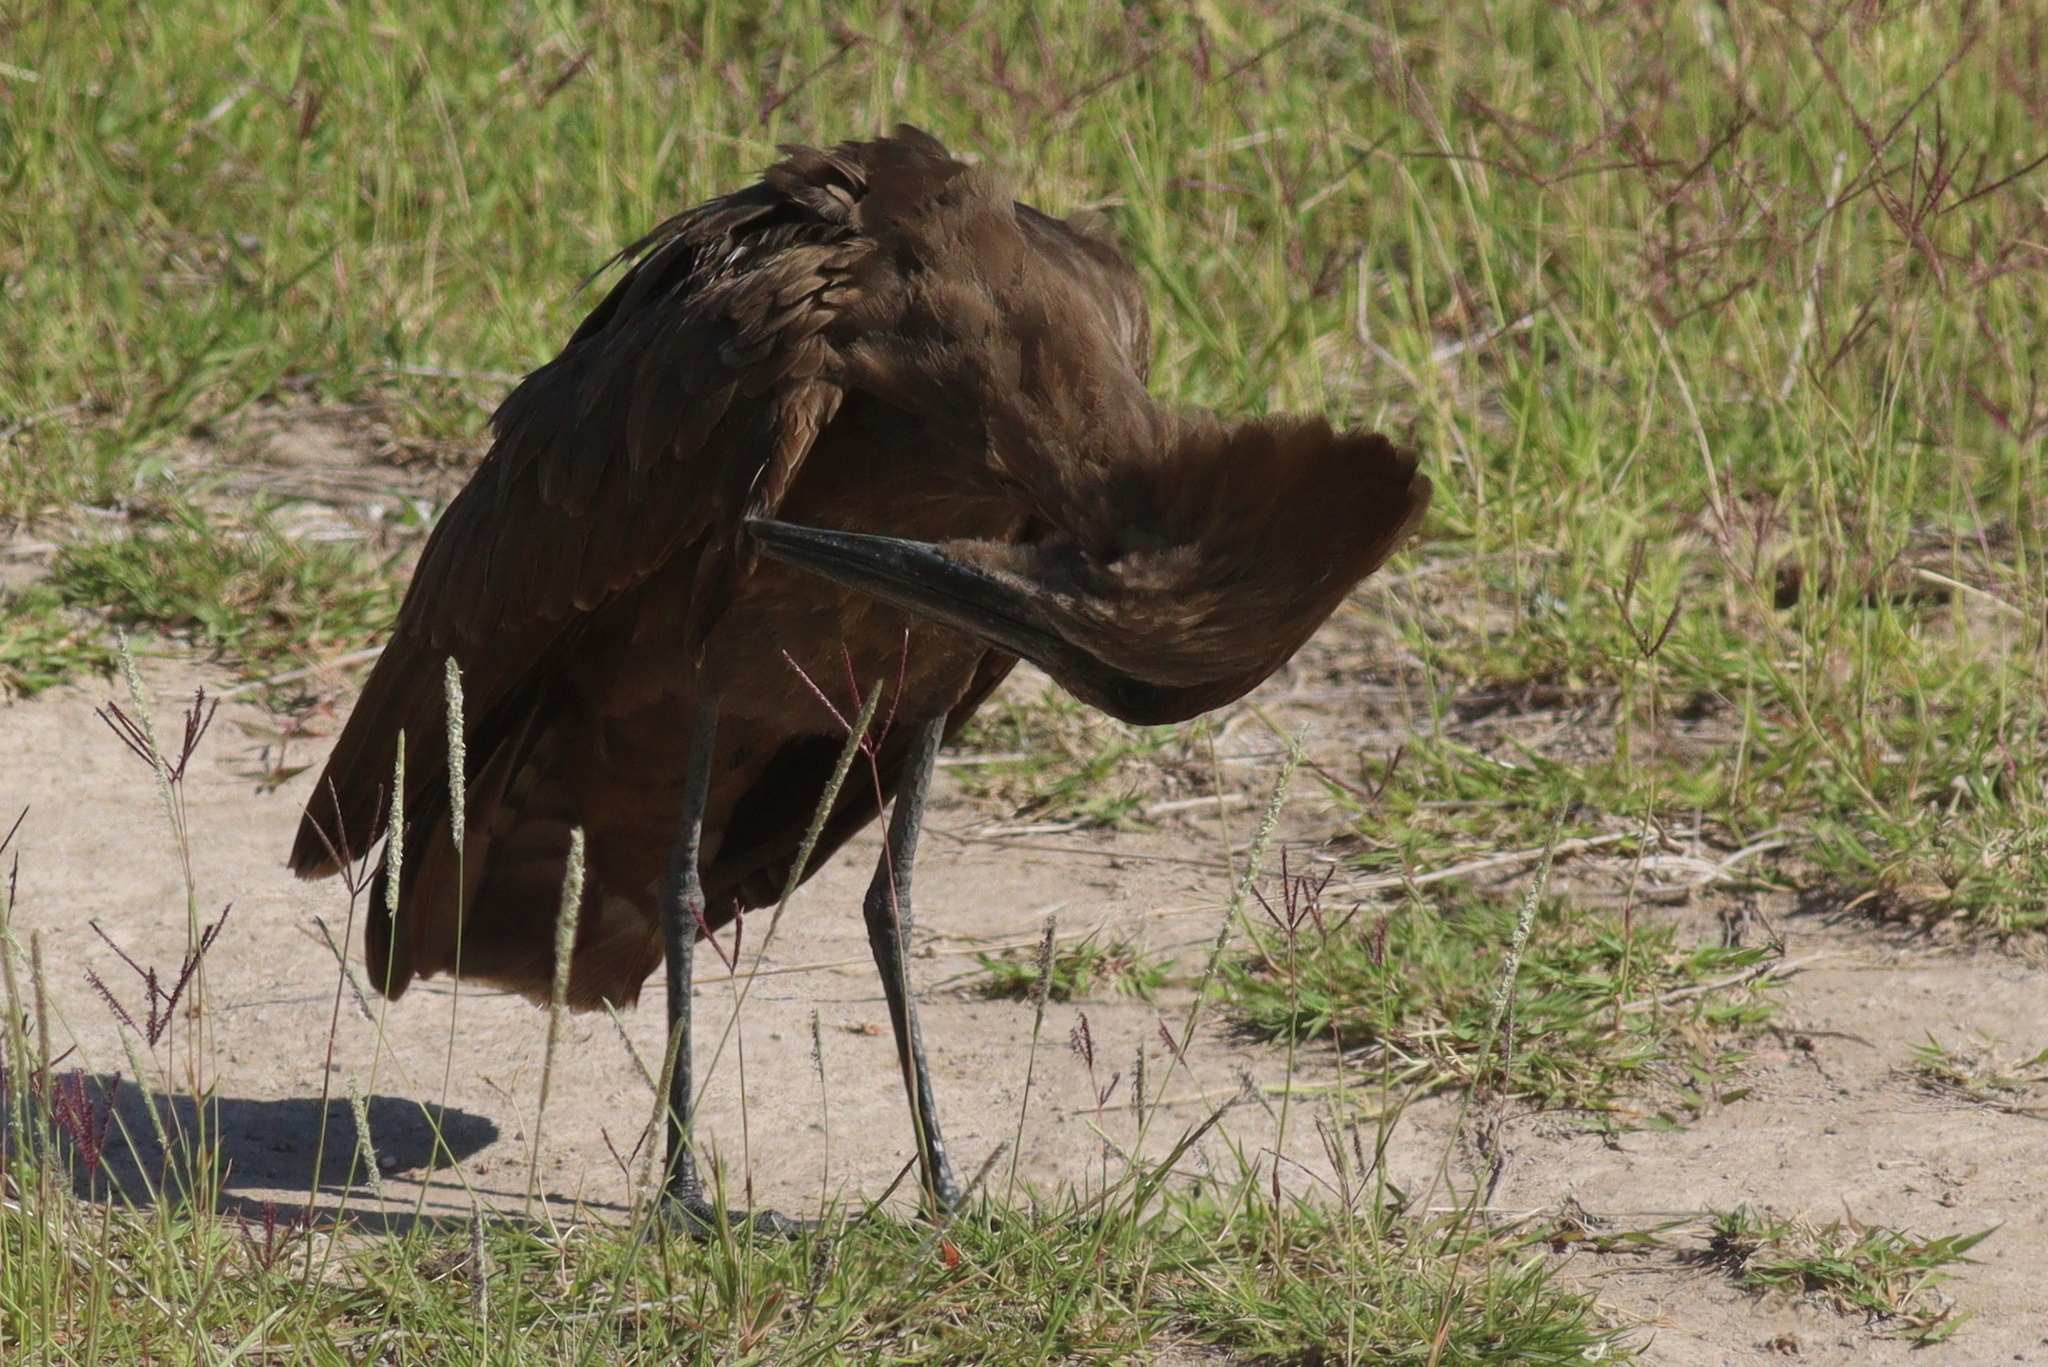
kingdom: Animalia
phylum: Chordata
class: Aves
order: Pelecaniformes
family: Scopidae
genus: Scopus
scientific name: Scopus umbretta
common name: Hamerkop
